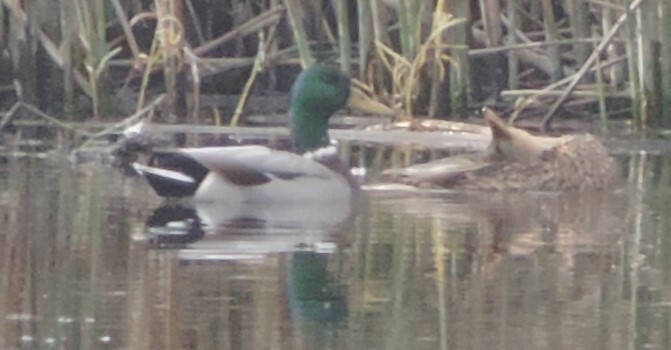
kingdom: Animalia
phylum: Chordata
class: Aves
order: Anseriformes
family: Anatidae
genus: Anas
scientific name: Anas platyrhynchos
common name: Mallard
